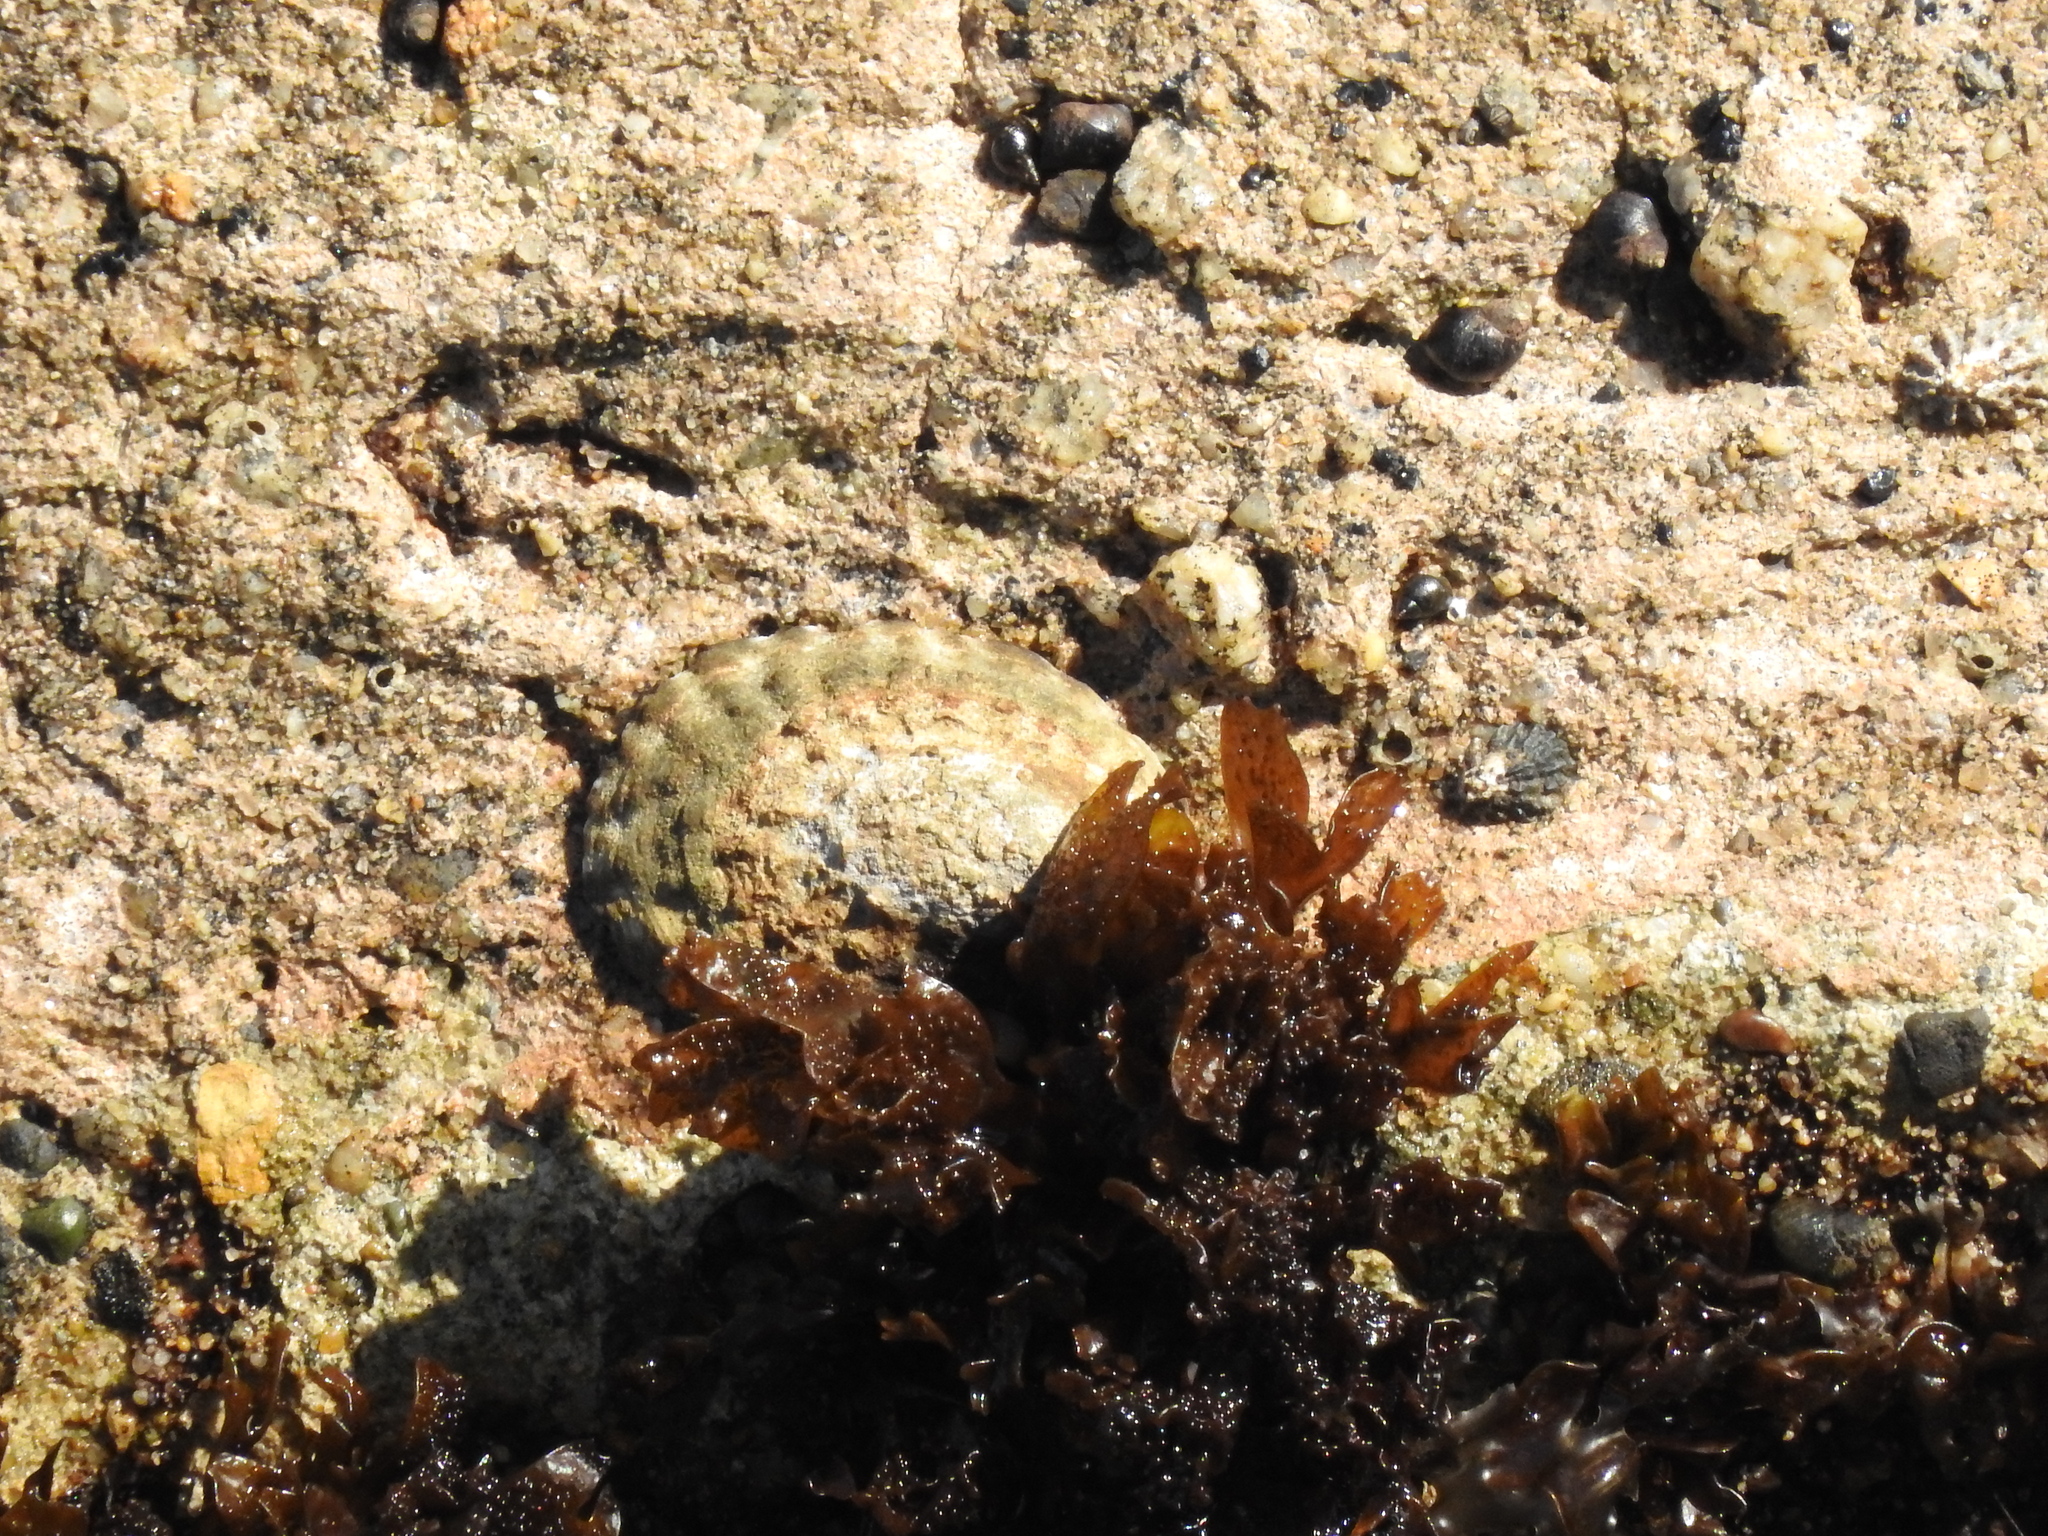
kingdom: Animalia
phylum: Mollusca
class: Gastropoda
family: Lottiidae
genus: Lottia
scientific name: Lottia gigantea
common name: Owl limpet
